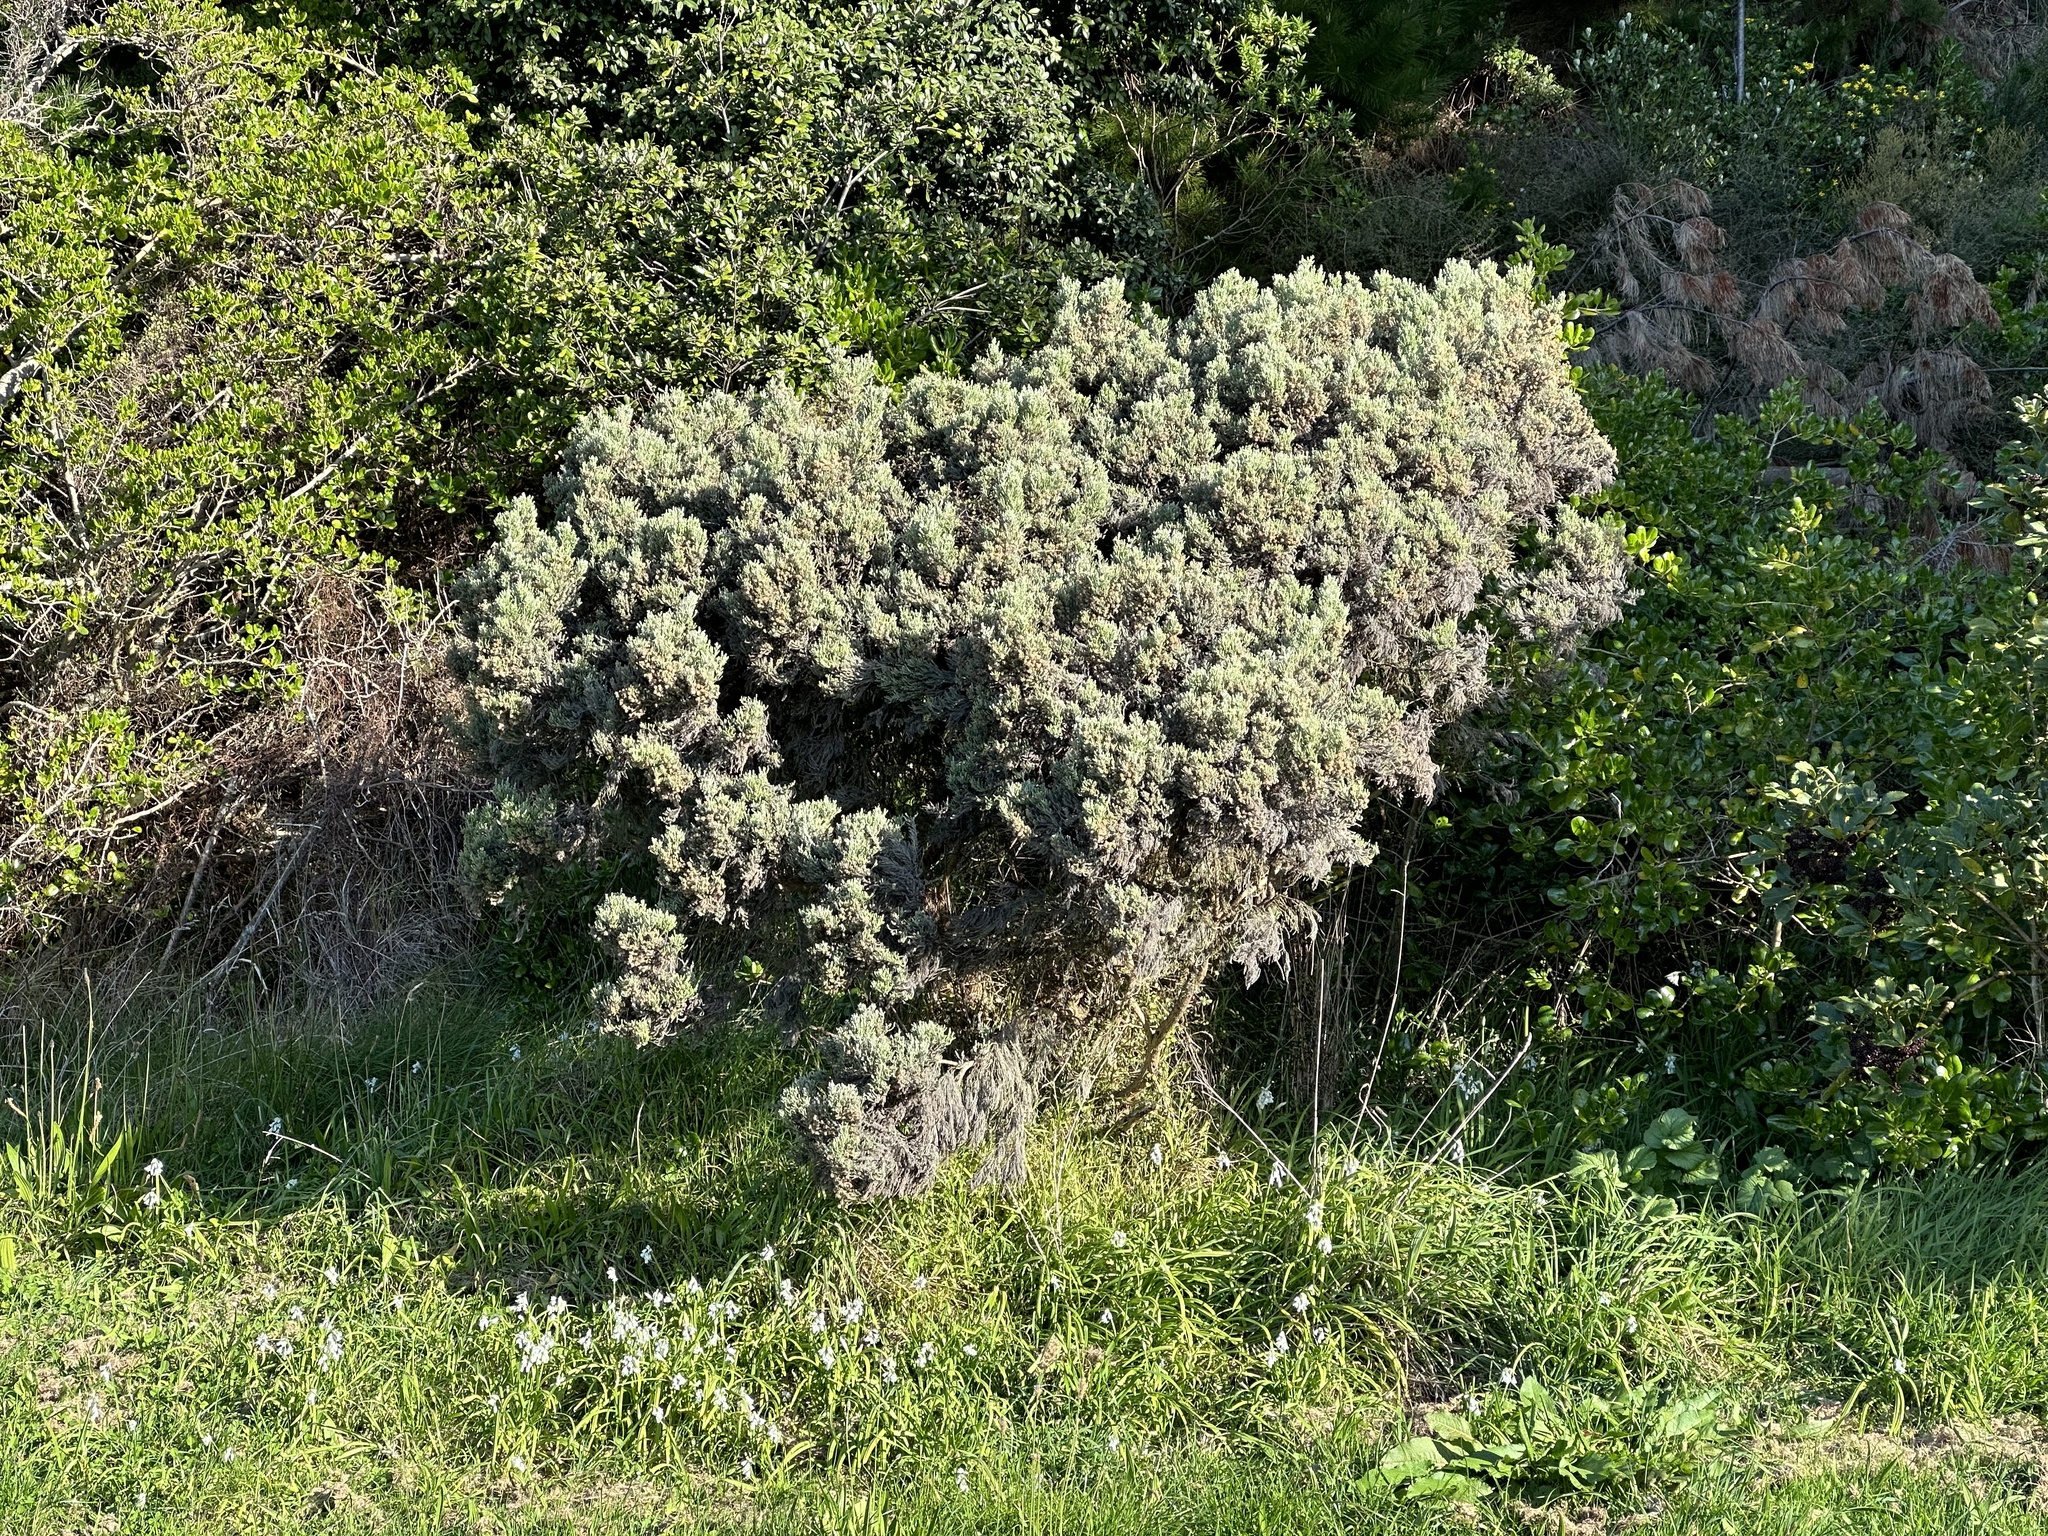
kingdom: Plantae
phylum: Tracheophyta
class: Magnoliopsida
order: Asterales
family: Asteraceae
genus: Ozothamnus
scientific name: Ozothamnus leptophyllus
